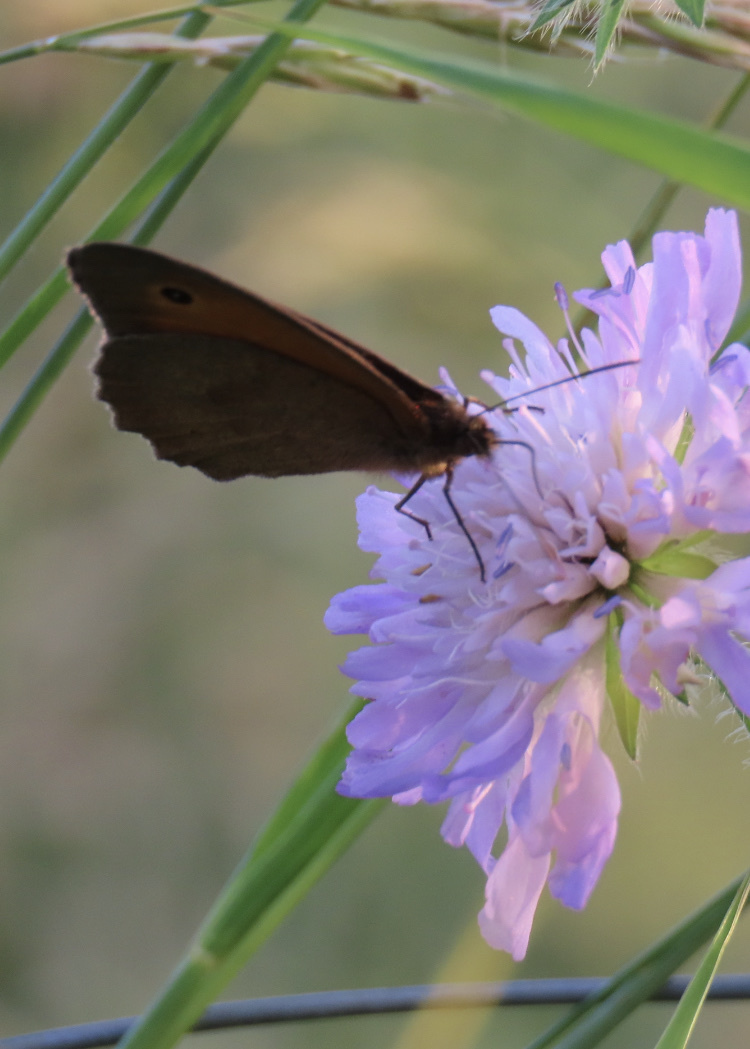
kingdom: Animalia
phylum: Arthropoda
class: Insecta
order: Lepidoptera
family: Nymphalidae
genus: Maniola
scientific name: Maniola jurtina
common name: Meadow brown
